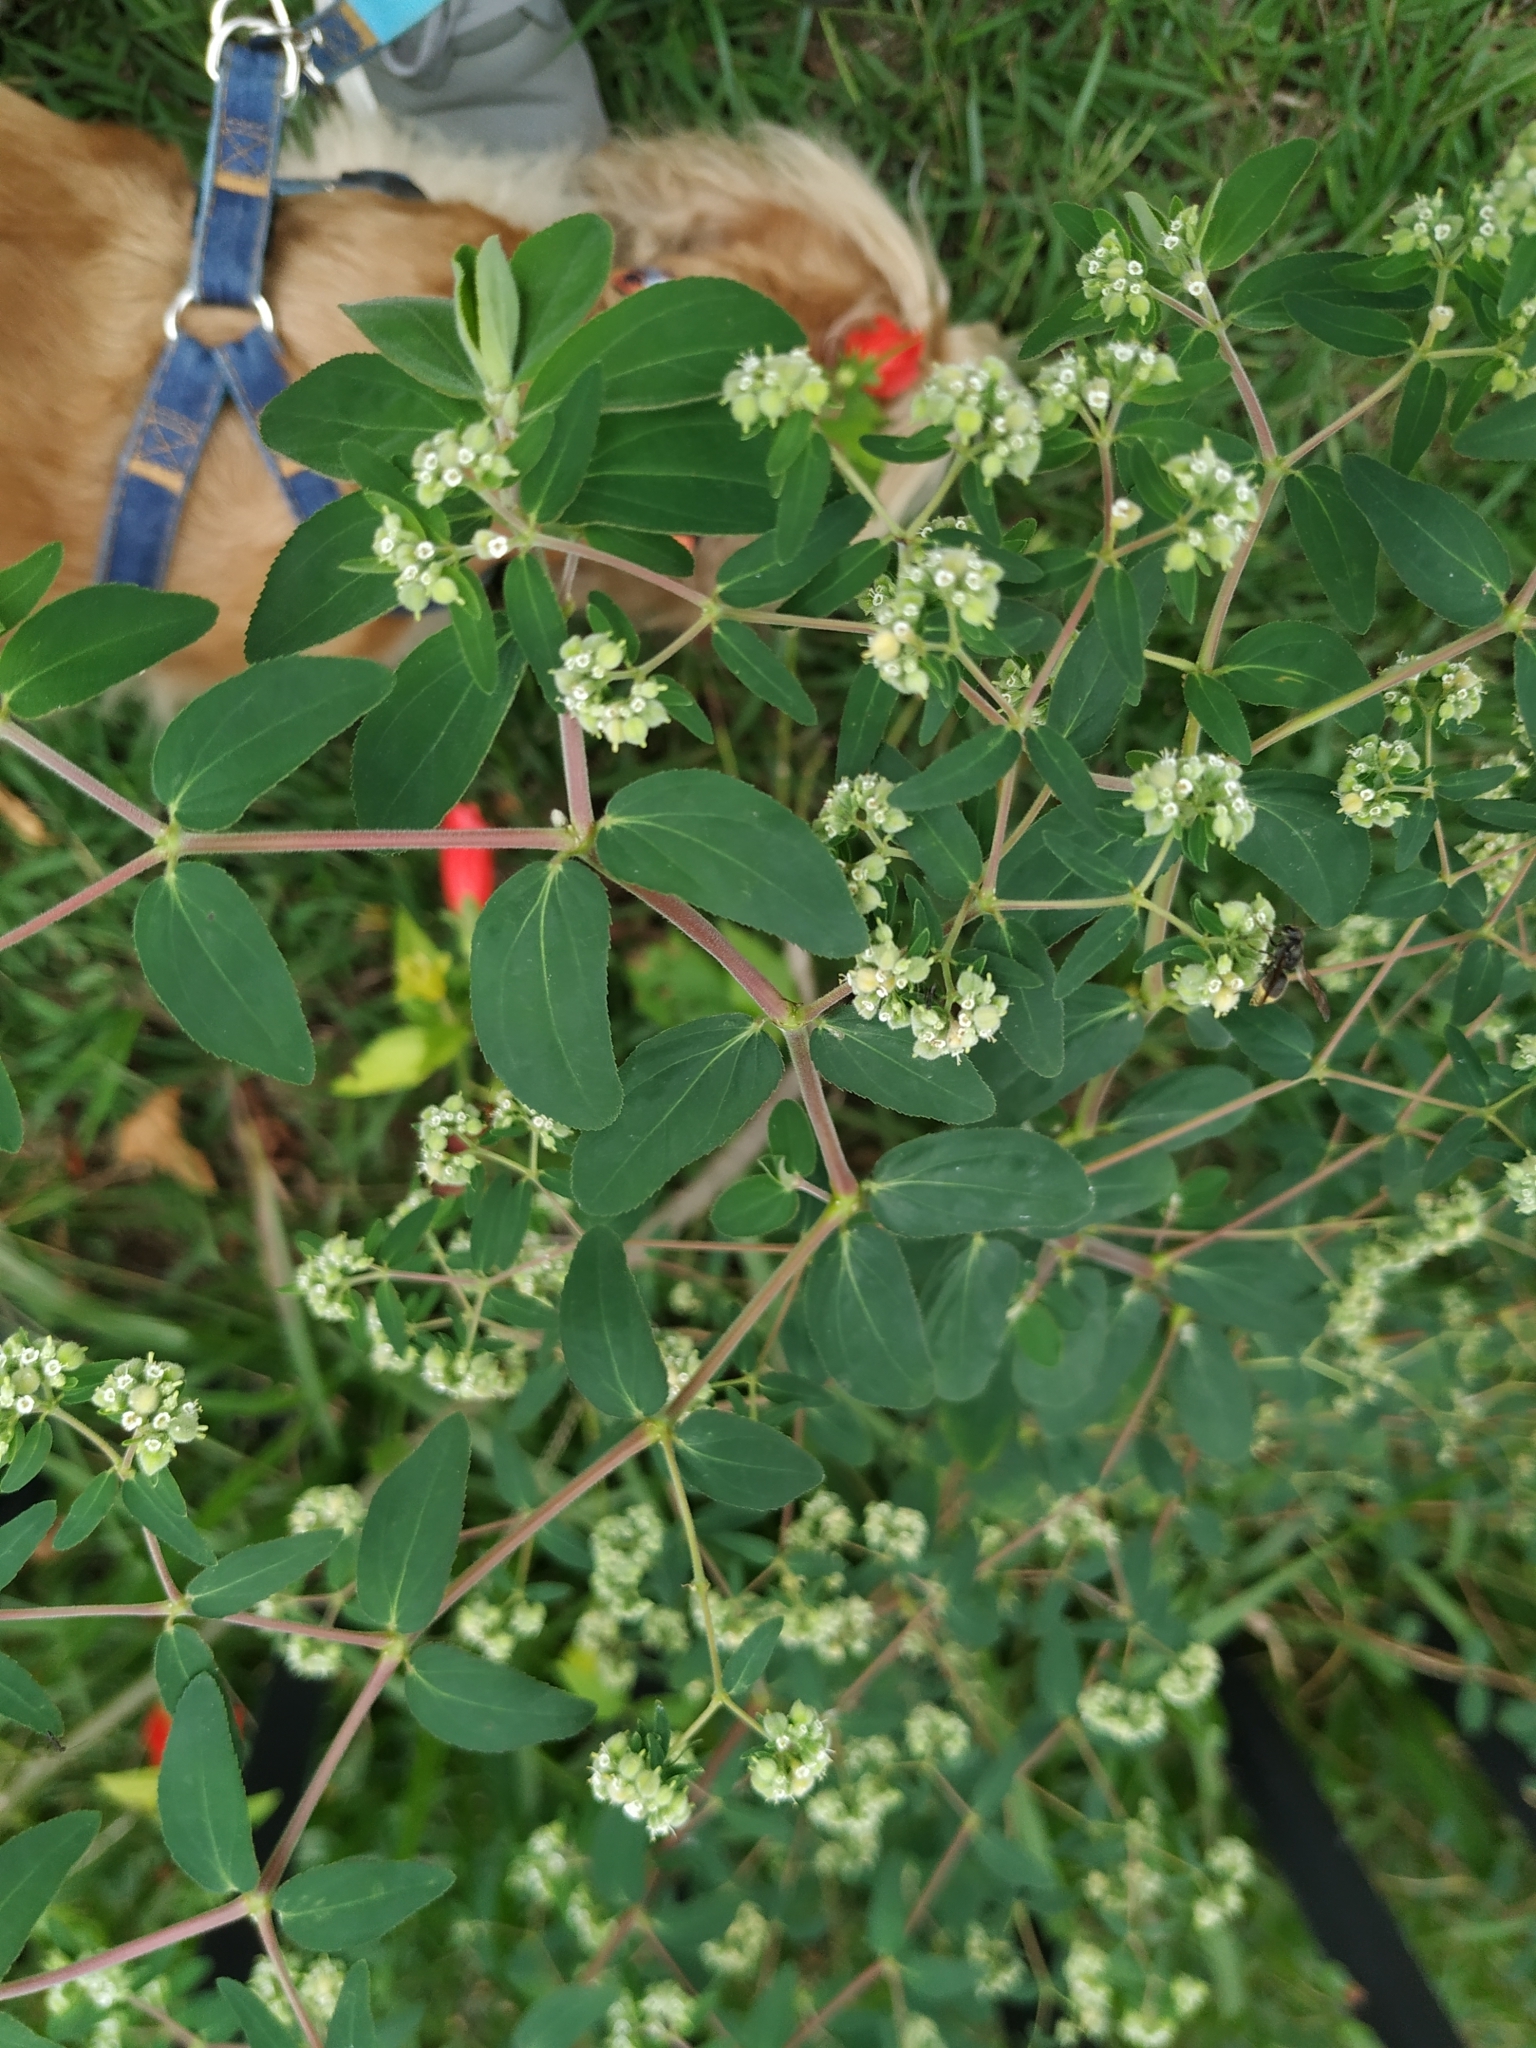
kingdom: Plantae
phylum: Tracheophyta
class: Magnoliopsida
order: Malpighiales
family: Euphorbiaceae
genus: Euphorbia
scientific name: Euphorbia lasiocarpa
